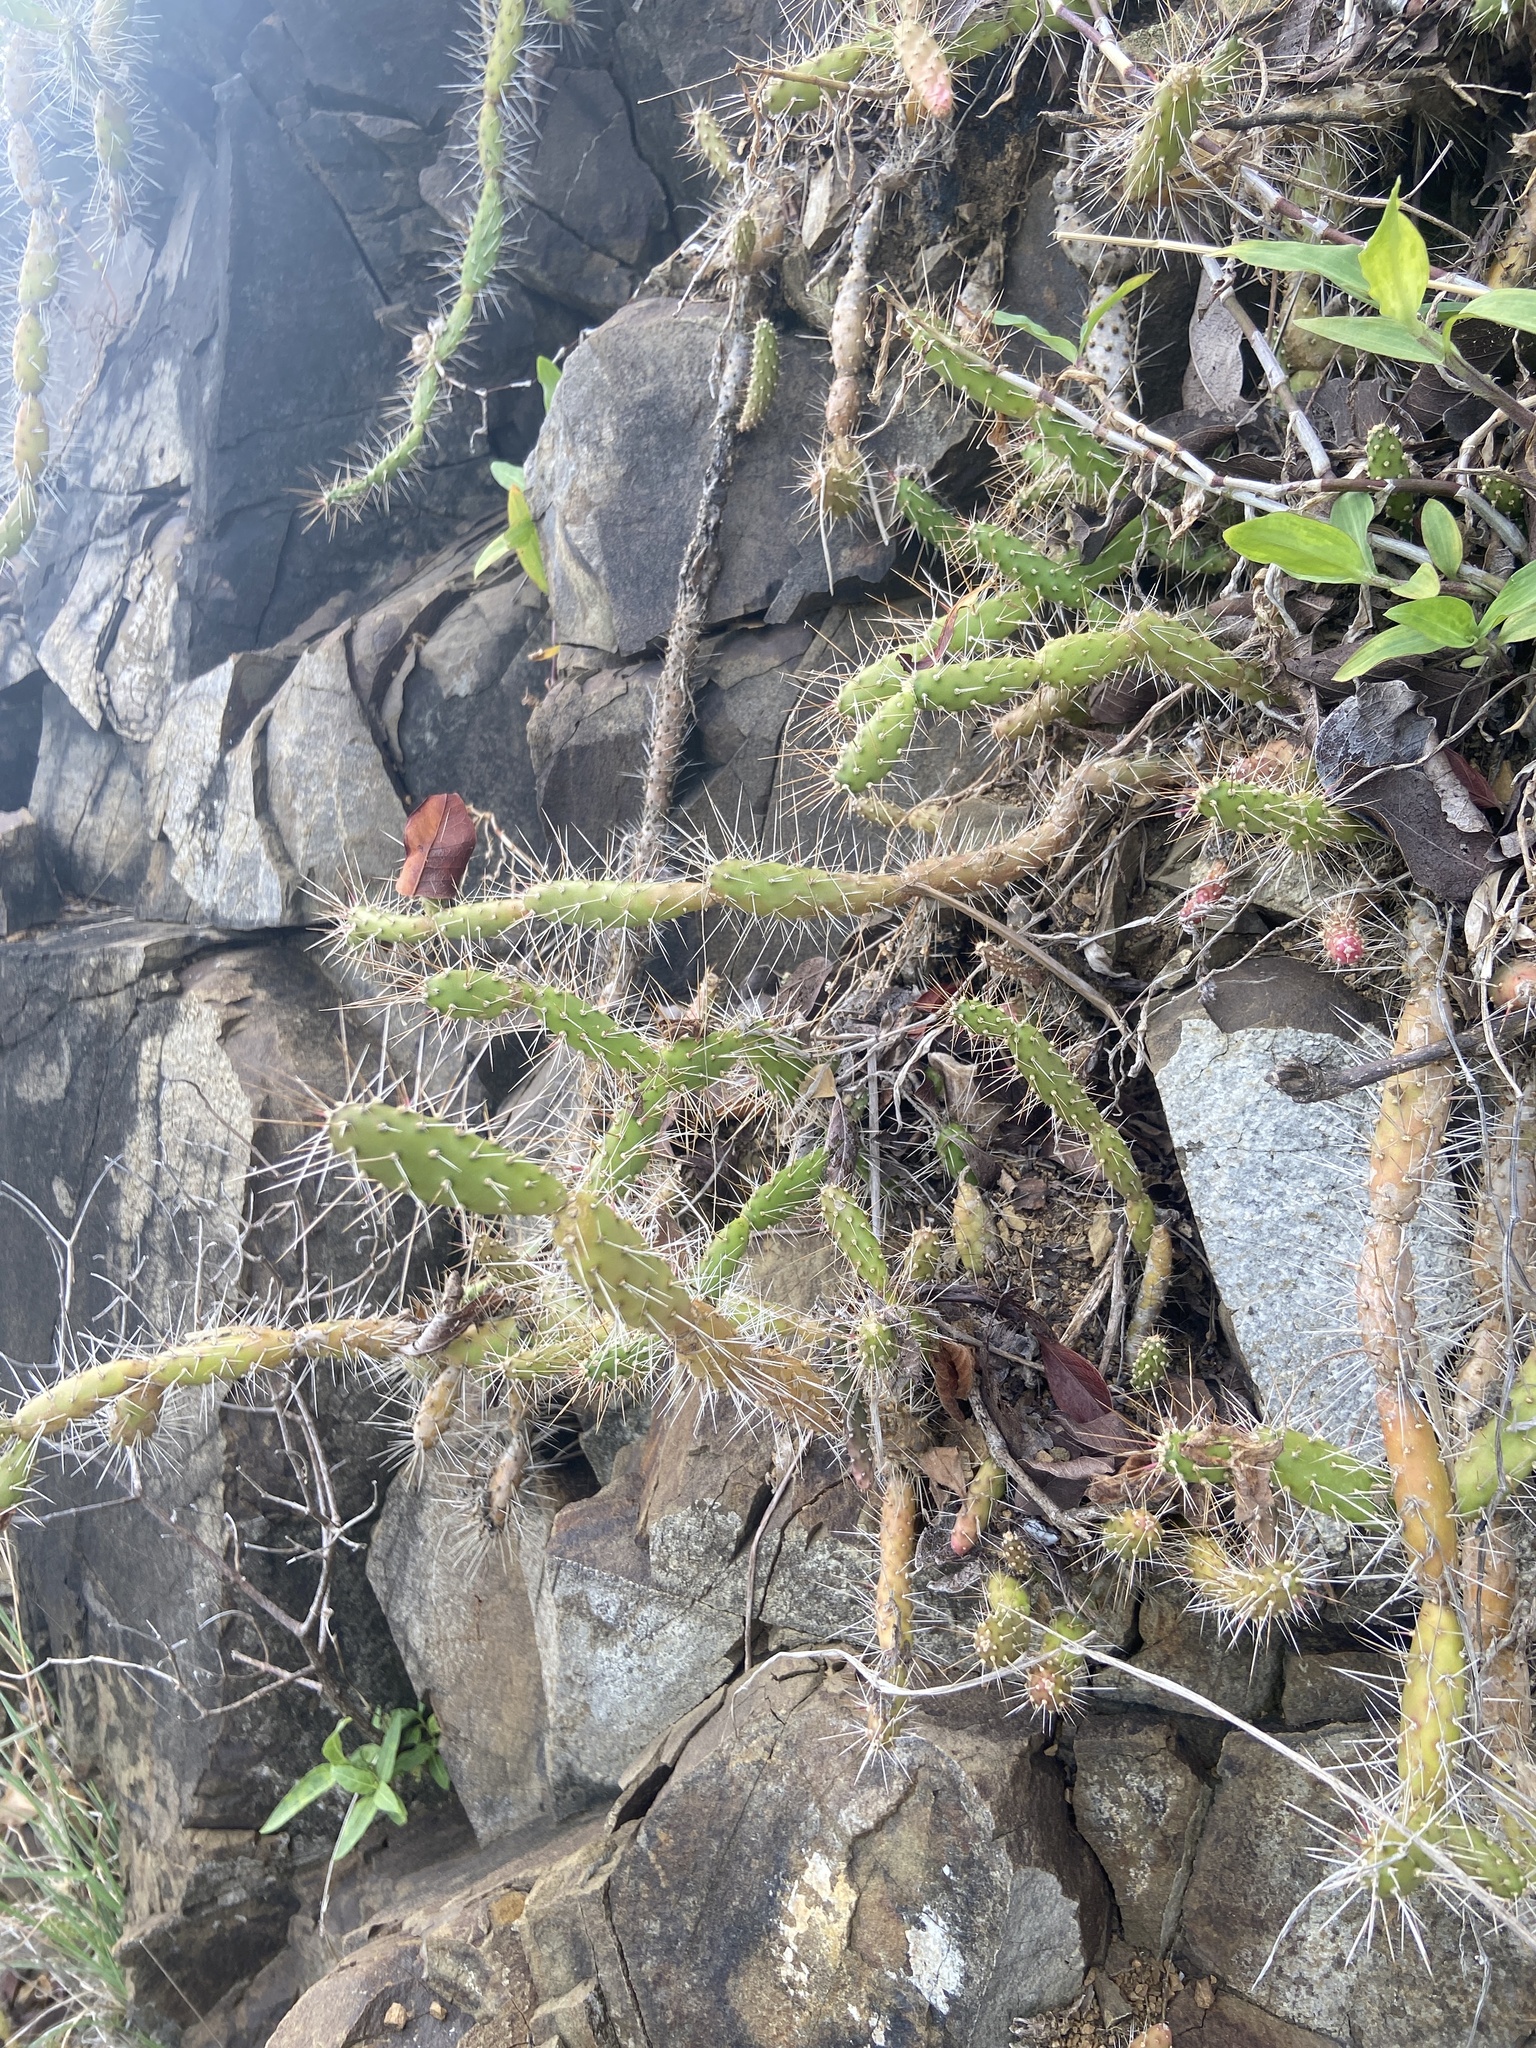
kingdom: Plantae
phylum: Tracheophyta
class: Magnoliopsida
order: Caryophyllales
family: Cactaceae
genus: Opuntia
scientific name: Opuntia repens
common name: Roving pricklypear
